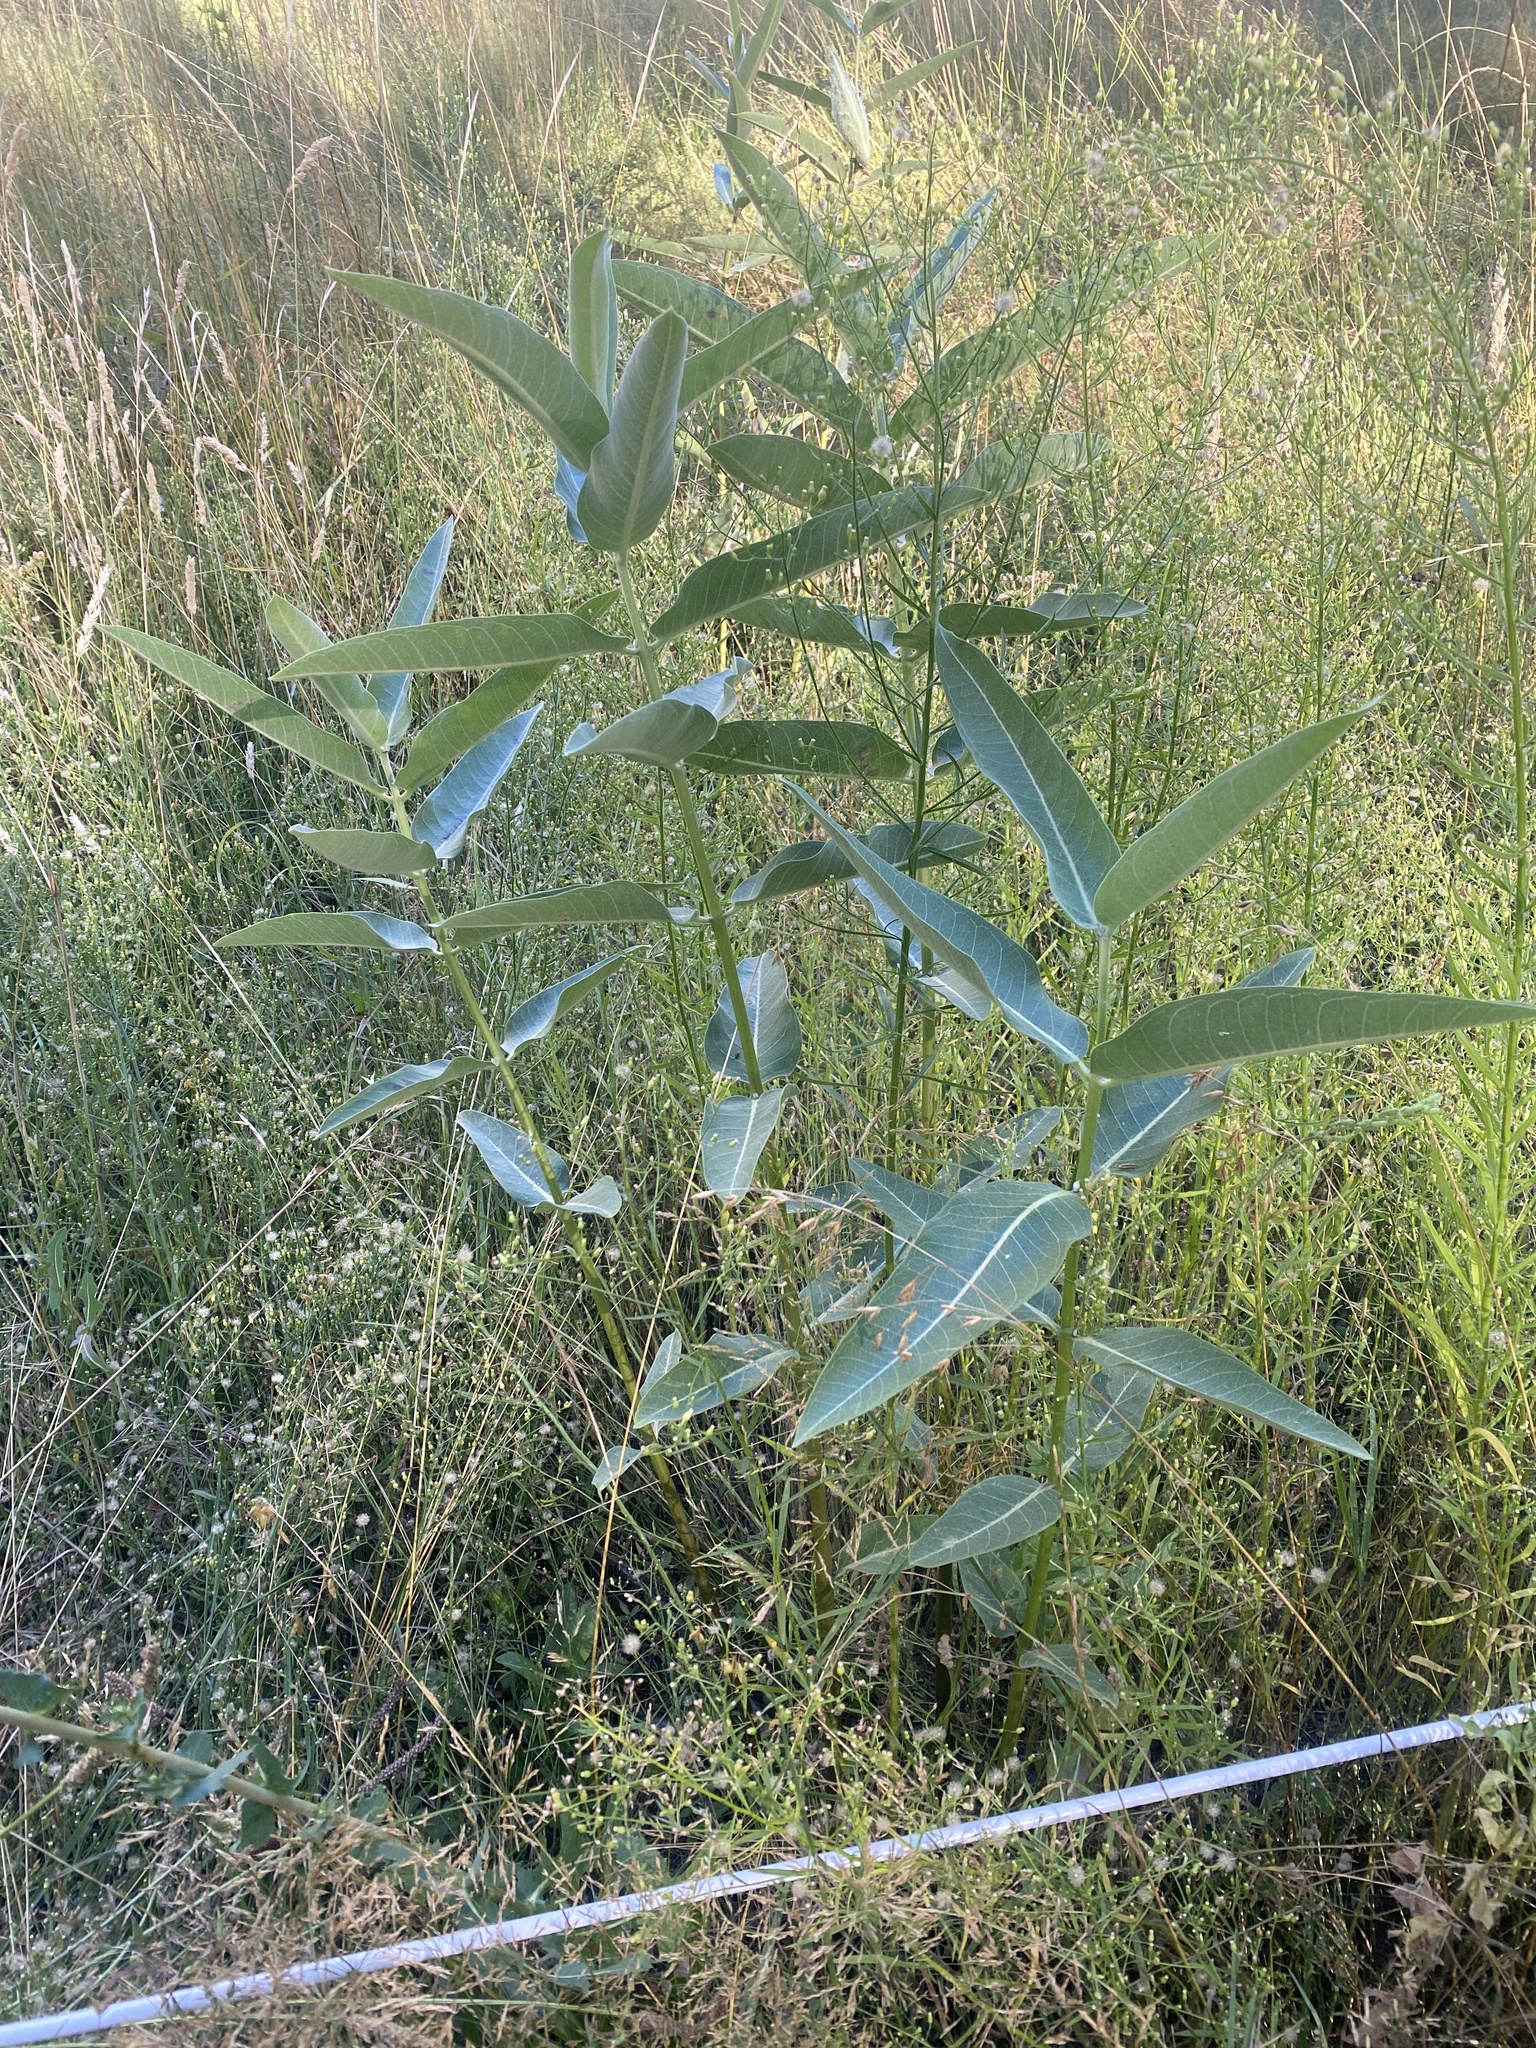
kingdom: Plantae
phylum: Tracheophyta
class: Magnoliopsida
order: Gentianales
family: Apocynaceae
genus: Asclepias
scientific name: Asclepias speciosa
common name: Showy milkweed
